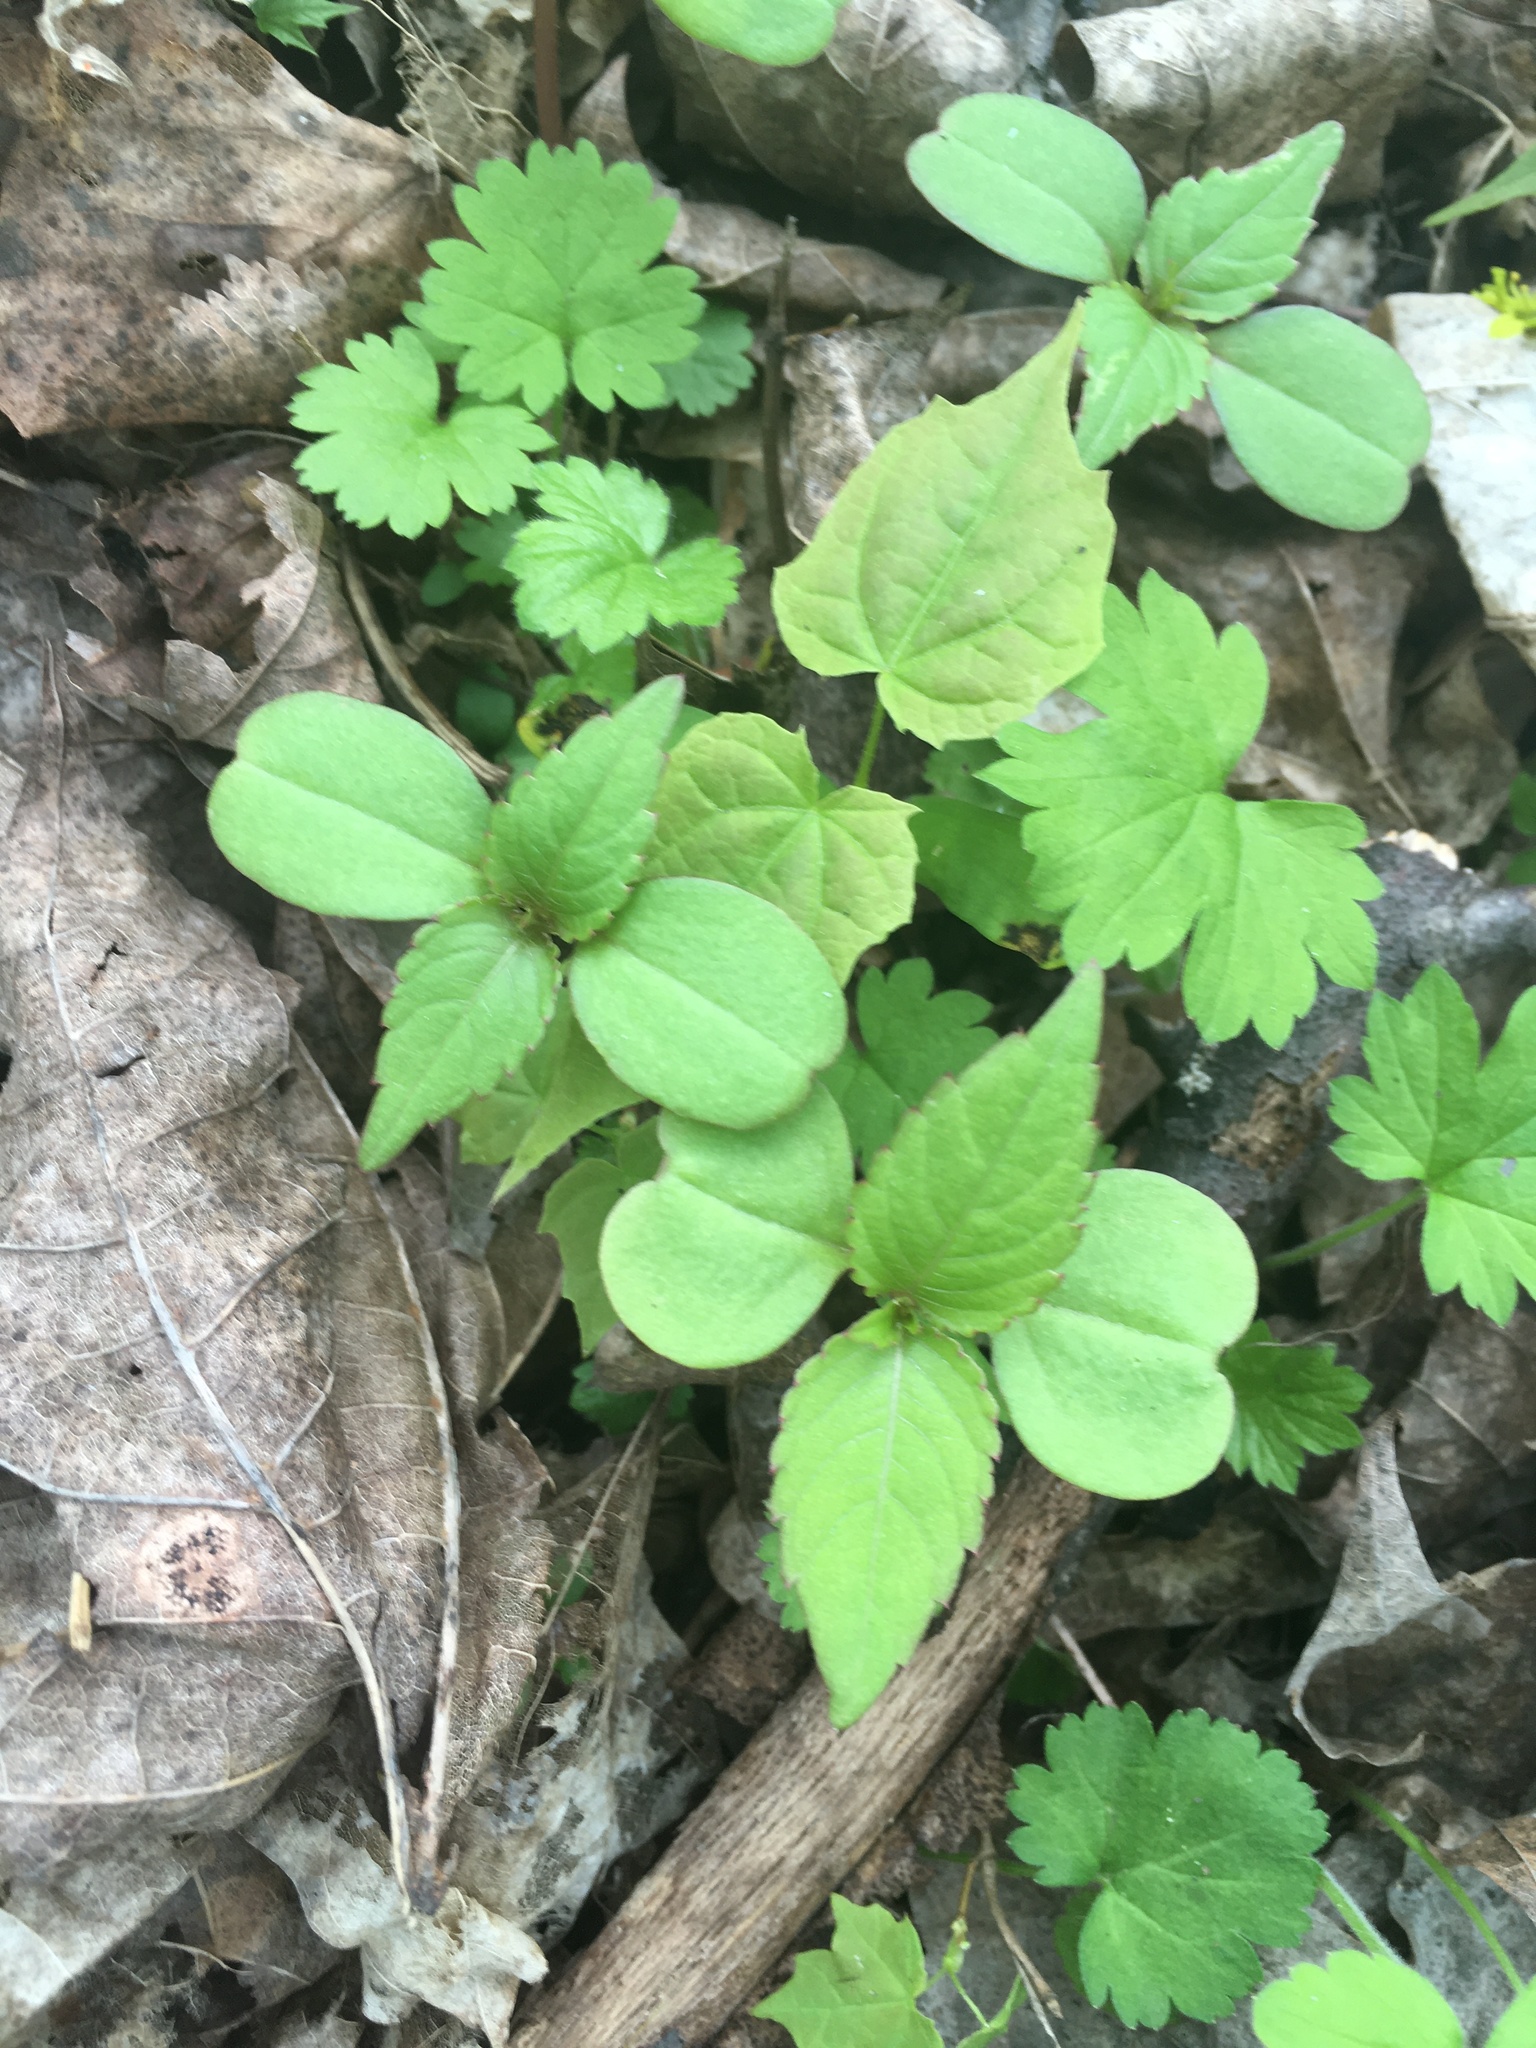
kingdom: Plantae
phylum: Tracheophyta
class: Magnoliopsida
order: Ericales
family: Balsaminaceae
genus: Impatiens
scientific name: Impatiens parviflora
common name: Small balsam
